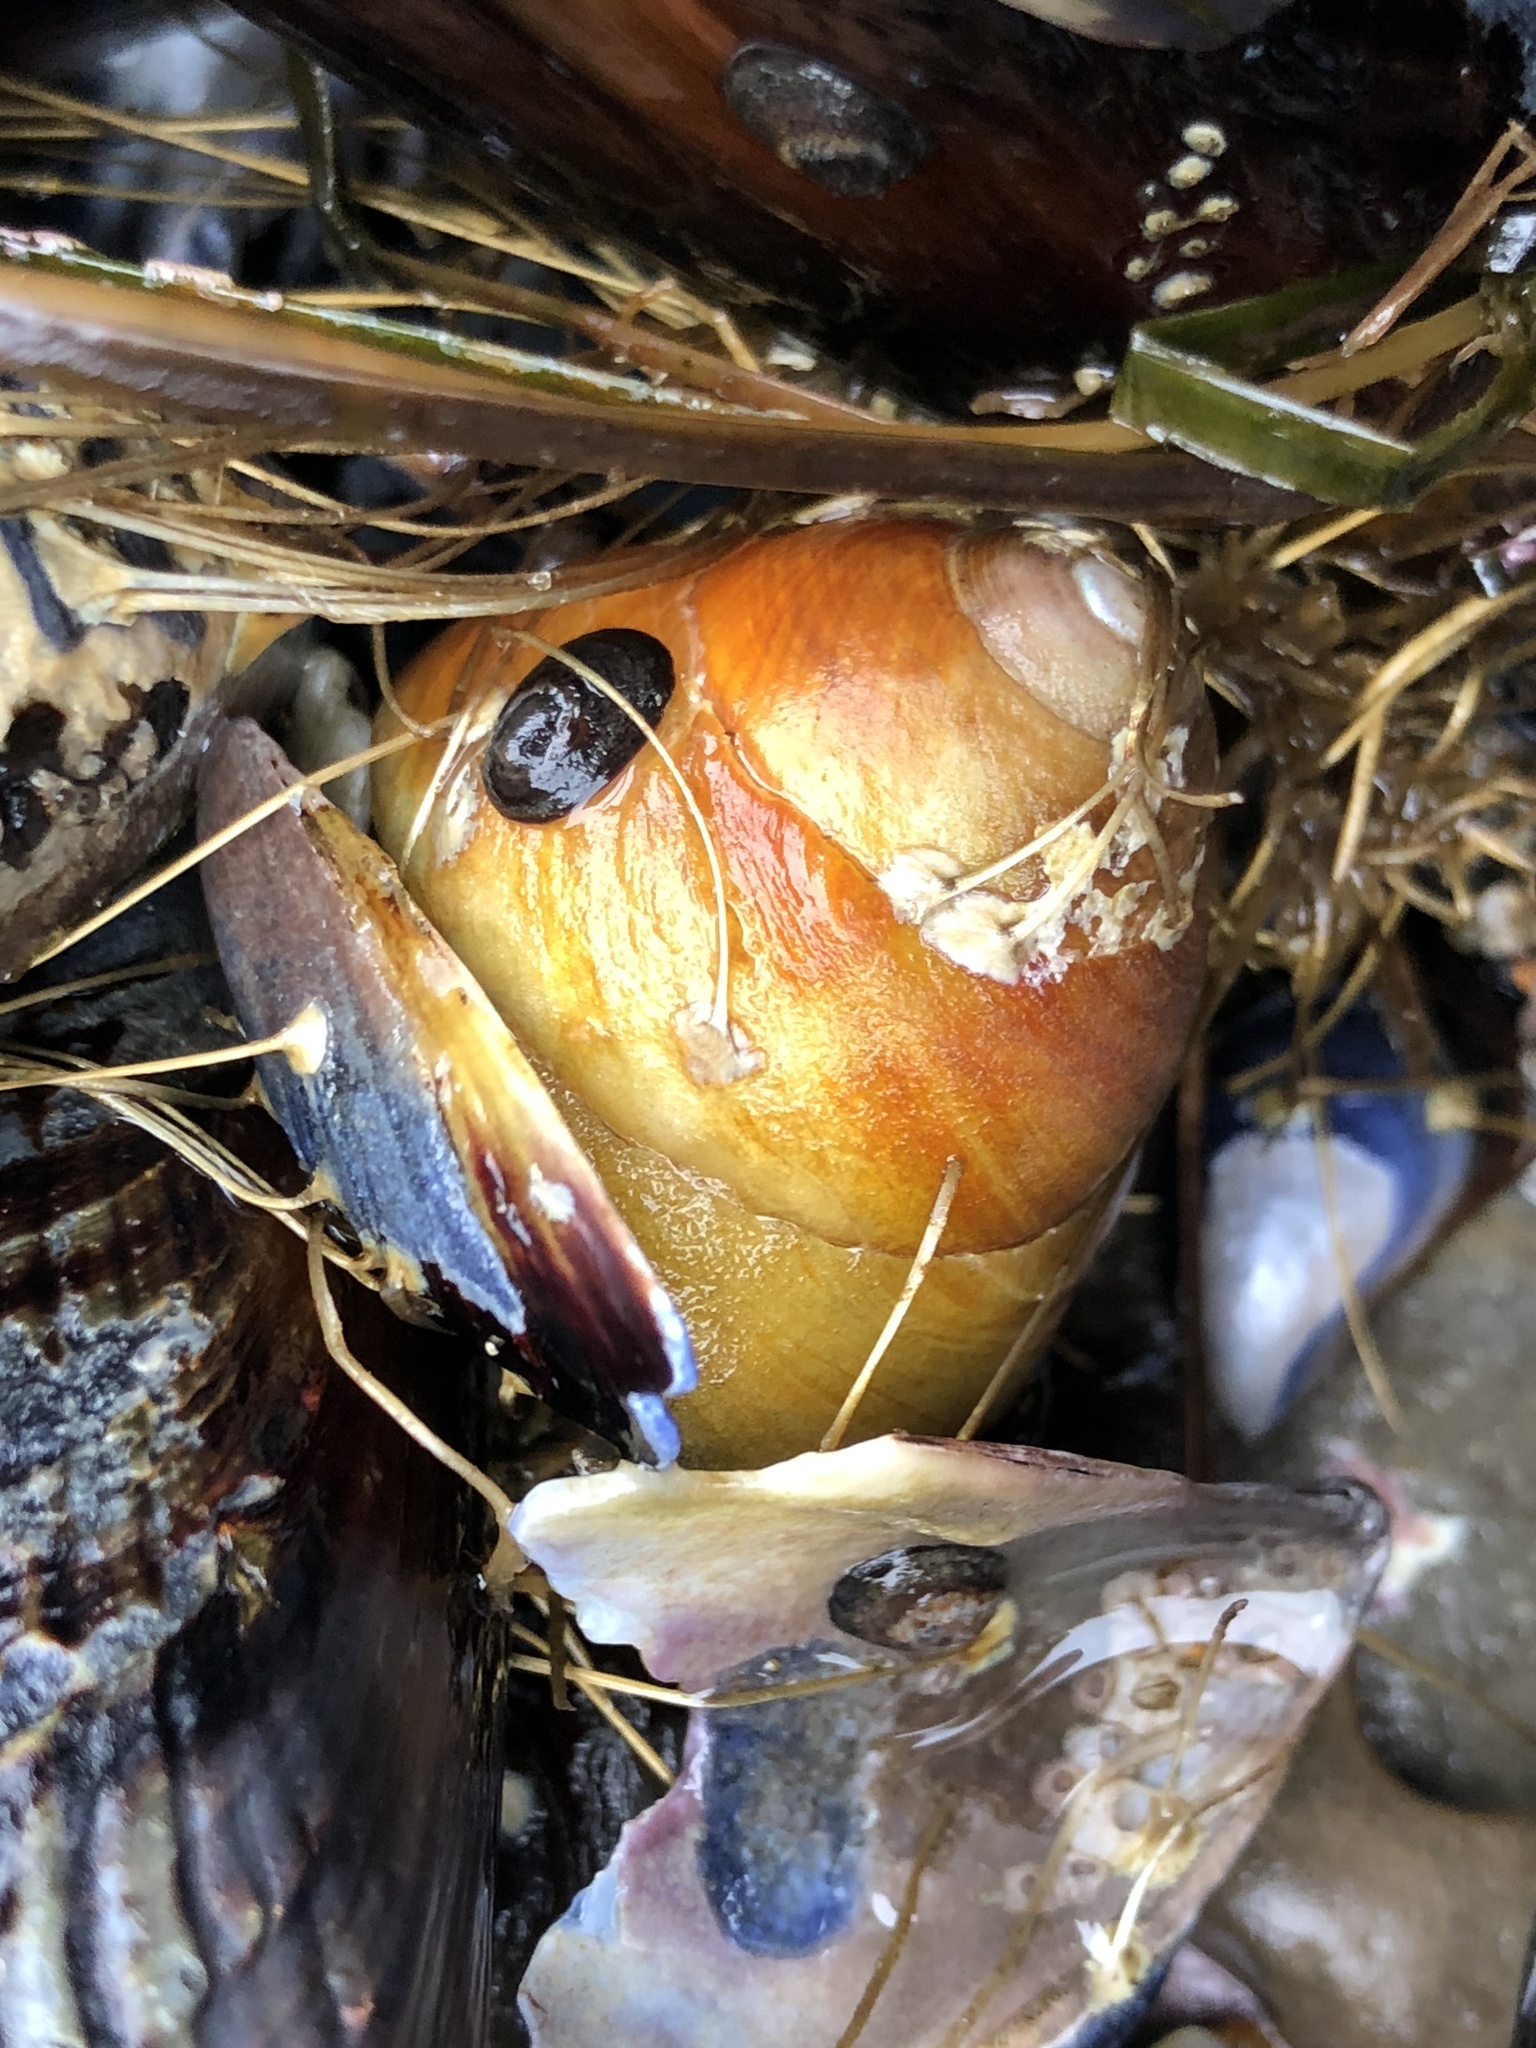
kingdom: Animalia
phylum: Mollusca
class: Gastropoda
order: Trochida
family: Tegulidae
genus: Tegula
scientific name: Tegula brunnea
